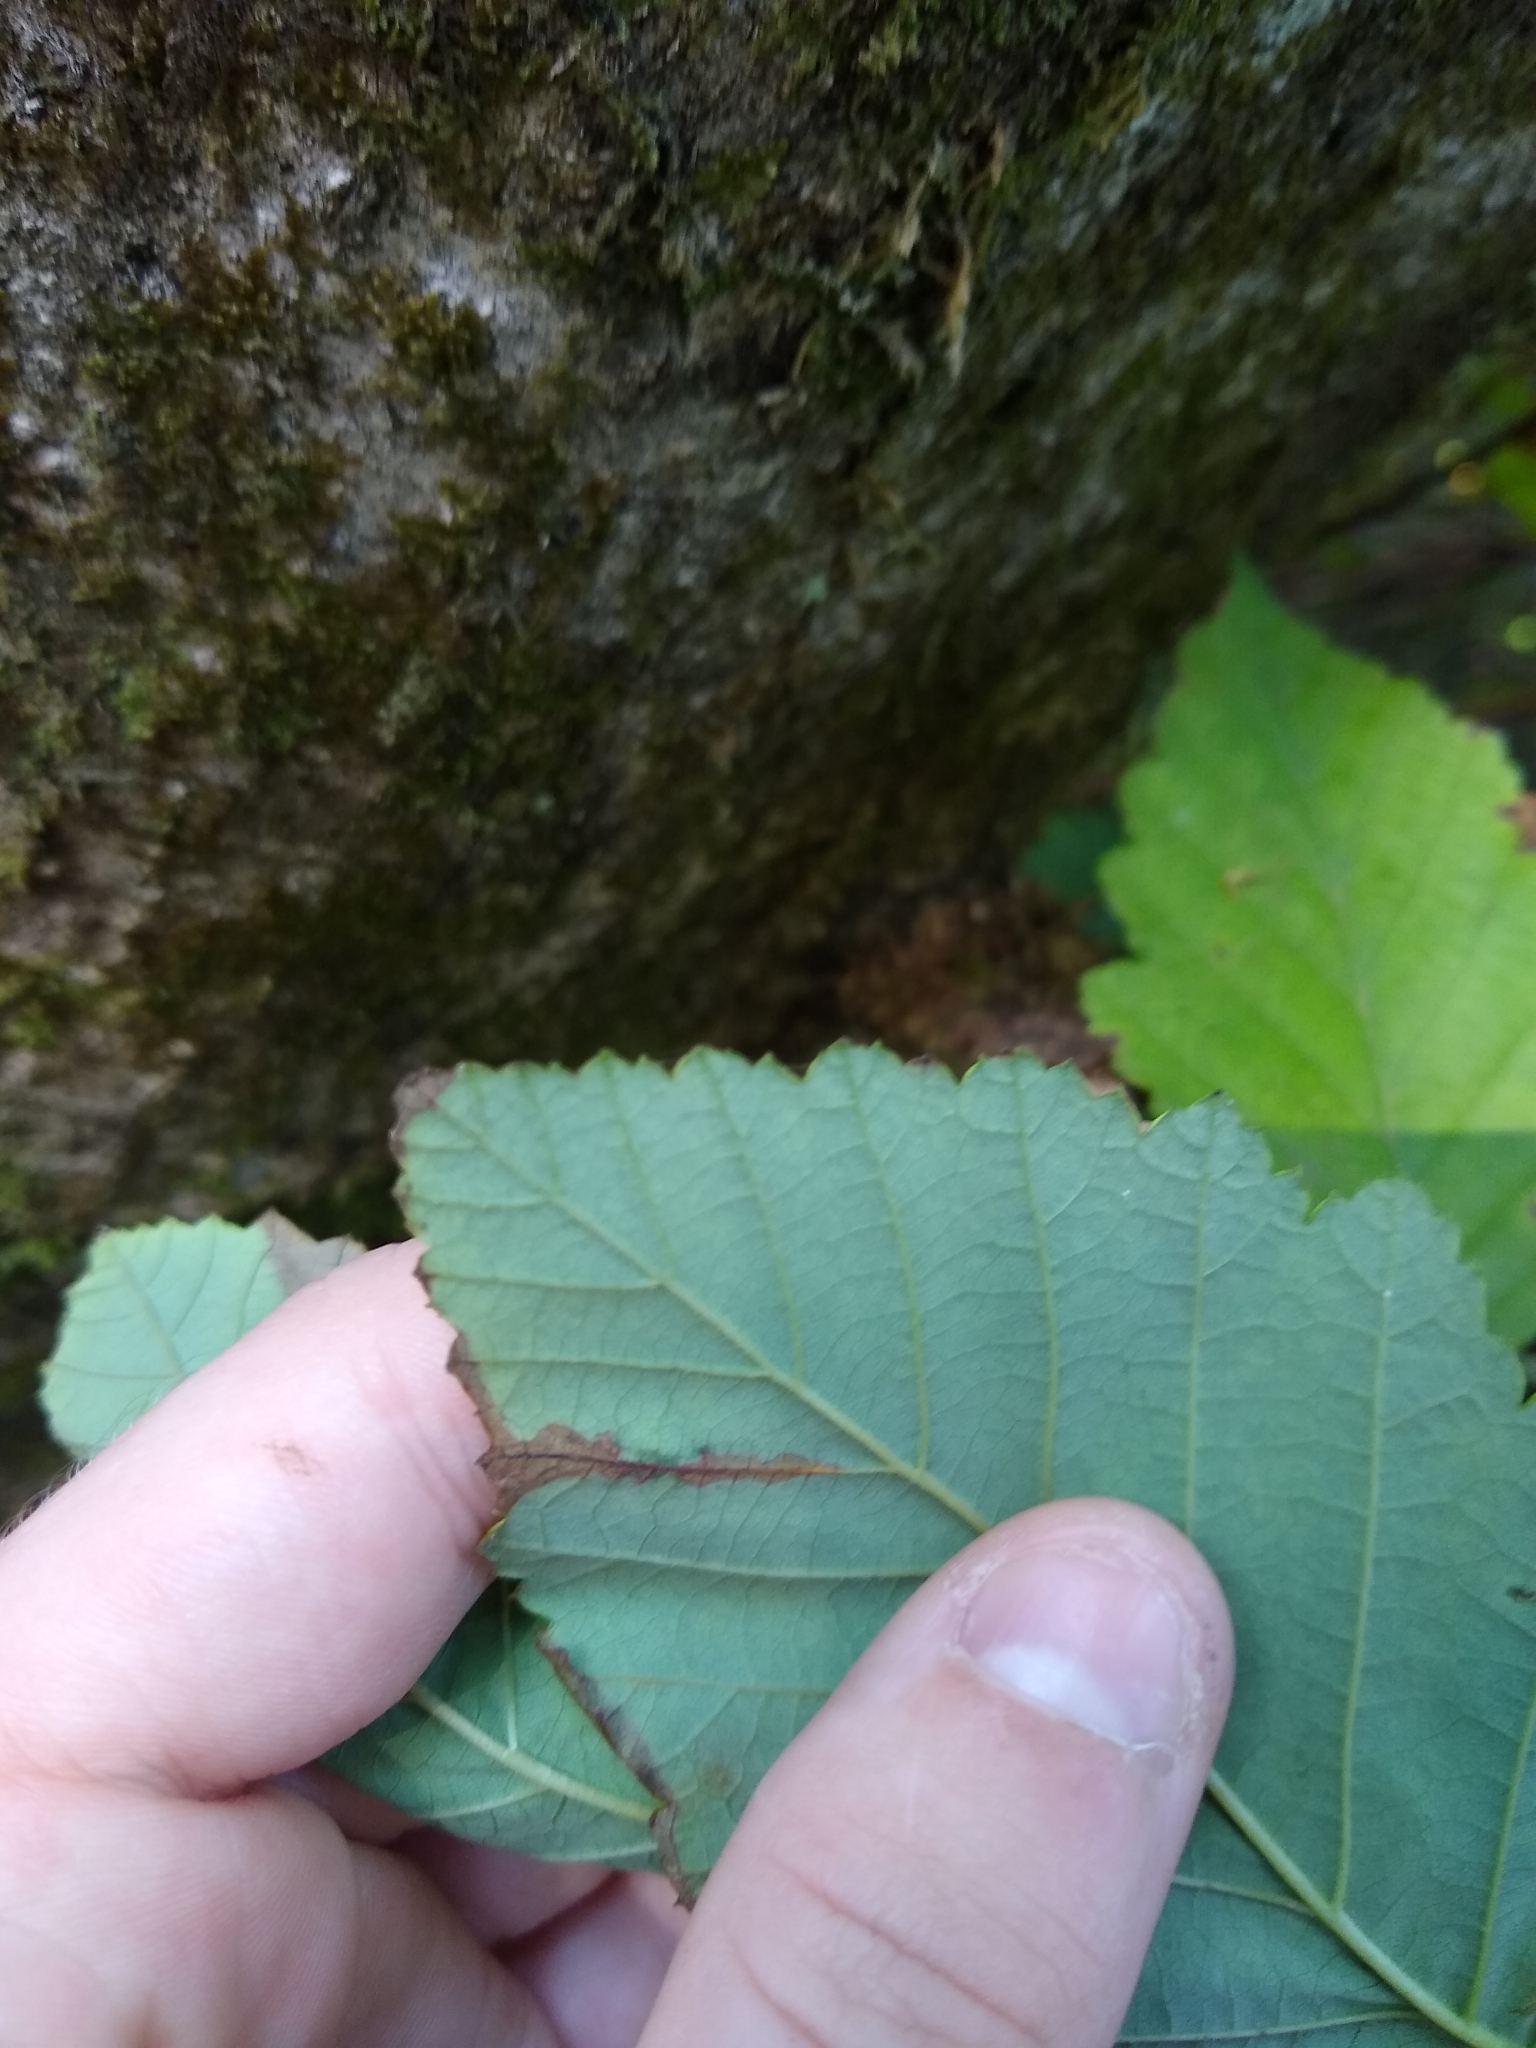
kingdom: Plantae
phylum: Tracheophyta
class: Magnoliopsida
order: Fagales
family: Betulaceae
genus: Alnus
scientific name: Alnus rubra
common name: Red alder
